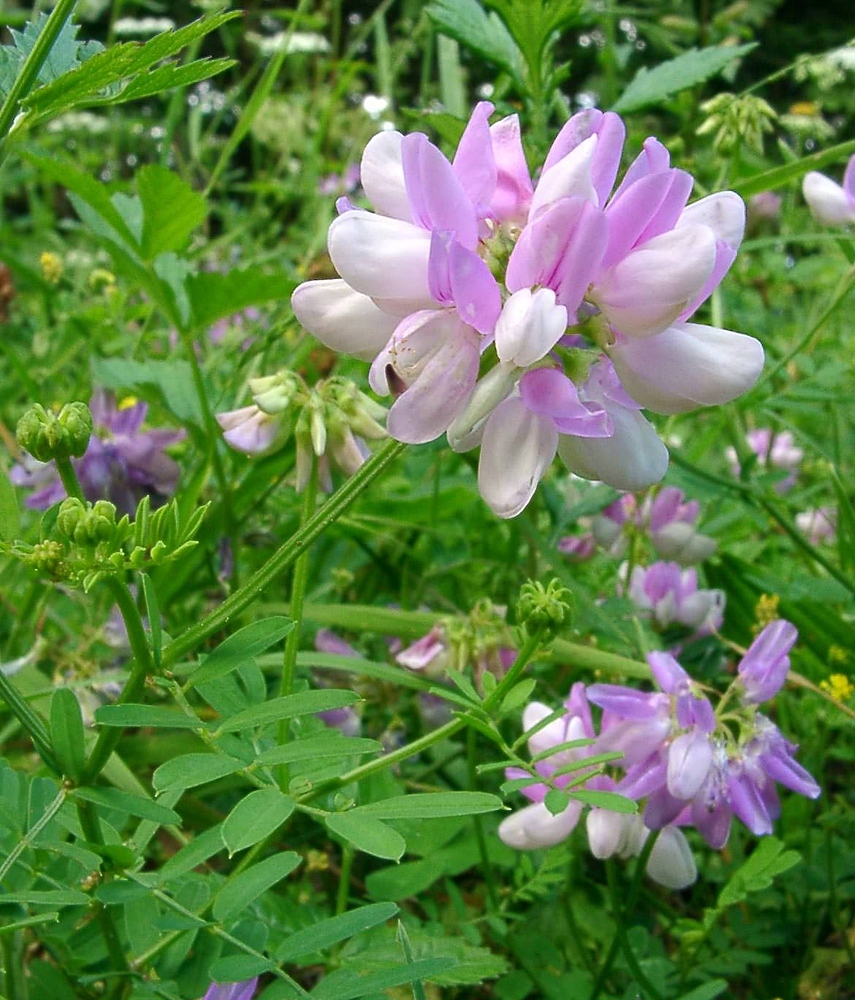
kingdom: Plantae
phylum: Tracheophyta
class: Magnoliopsida
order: Fabales
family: Fabaceae
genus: Coronilla
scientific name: Coronilla varia
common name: Crownvetch
